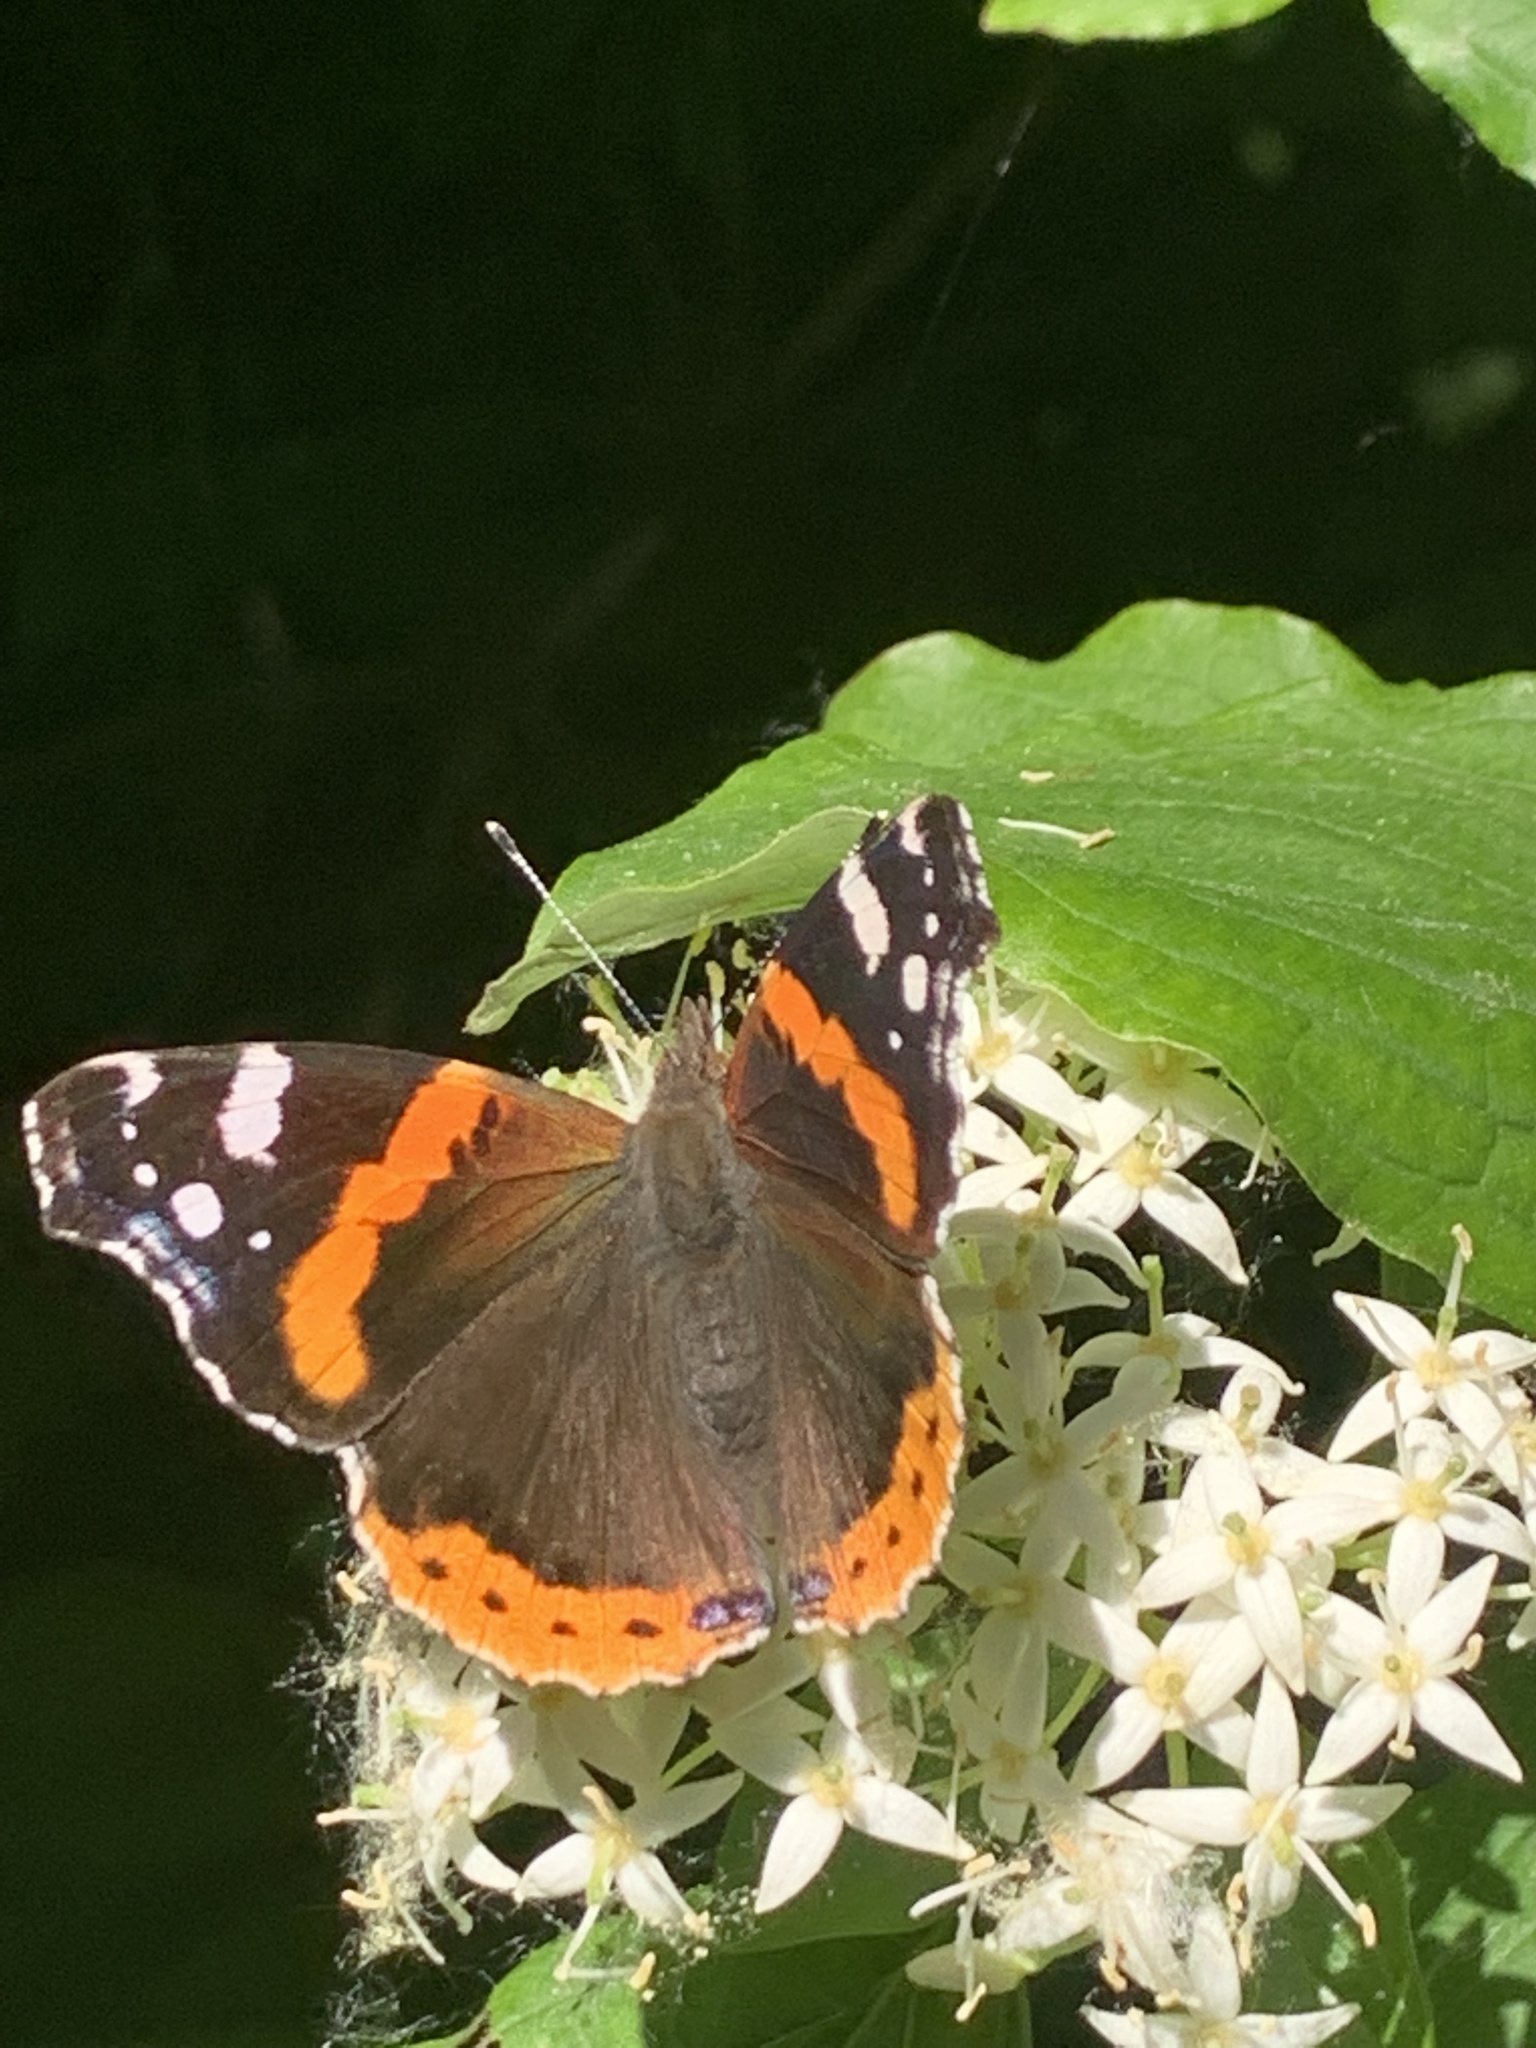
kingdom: Animalia
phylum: Arthropoda
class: Insecta
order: Lepidoptera
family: Nymphalidae
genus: Vanessa
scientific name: Vanessa atalanta
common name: Red admiral
